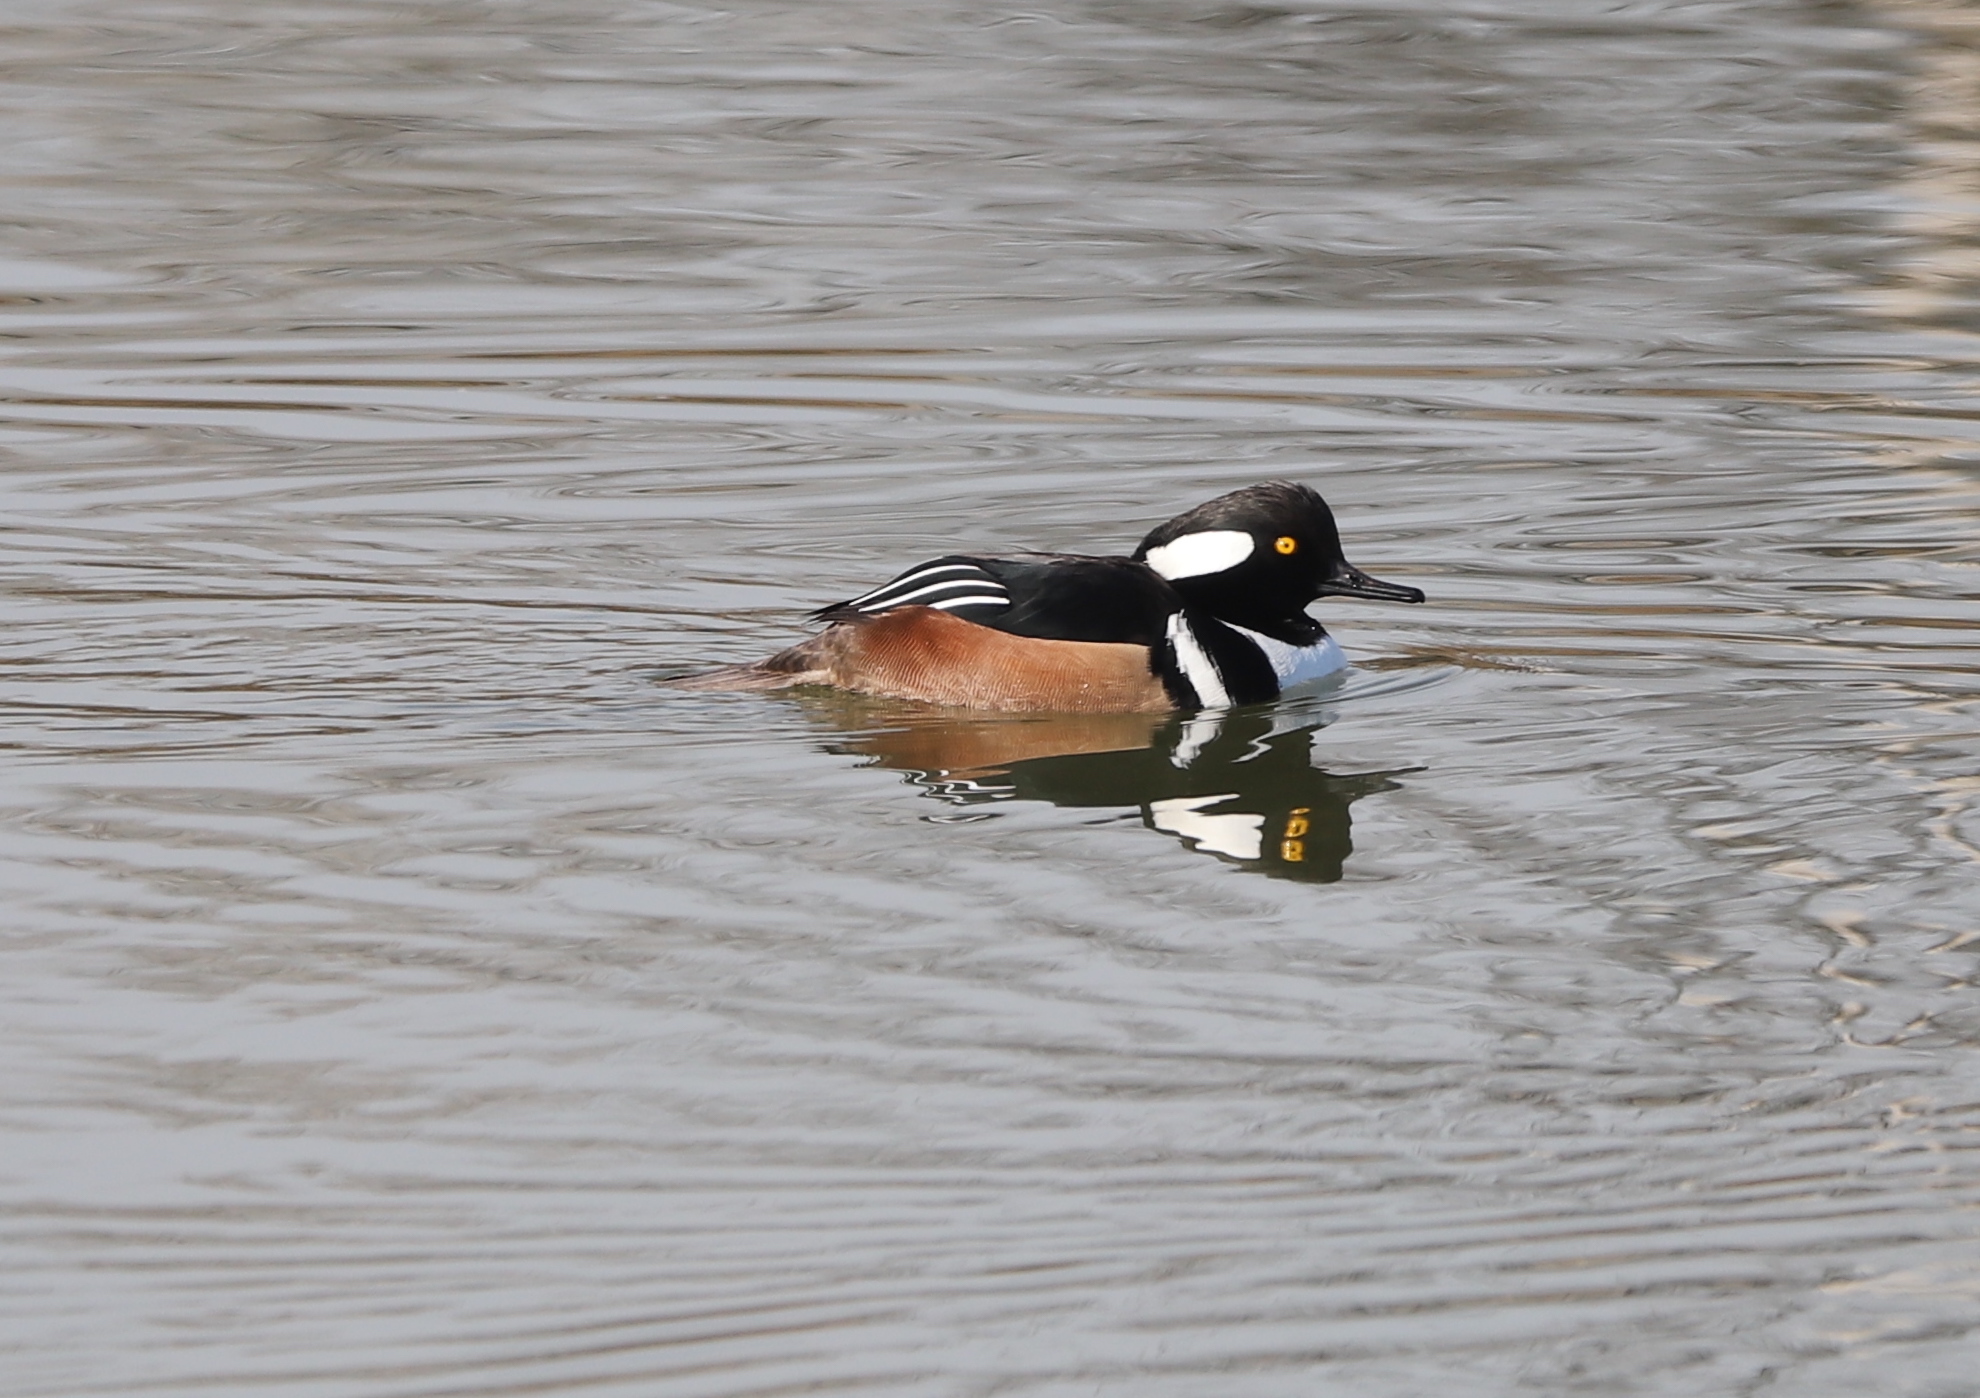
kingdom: Animalia
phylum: Chordata
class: Aves
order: Anseriformes
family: Anatidae
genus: Lophodytes
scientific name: Lophodytes cucullatus
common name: Hooded merganser
